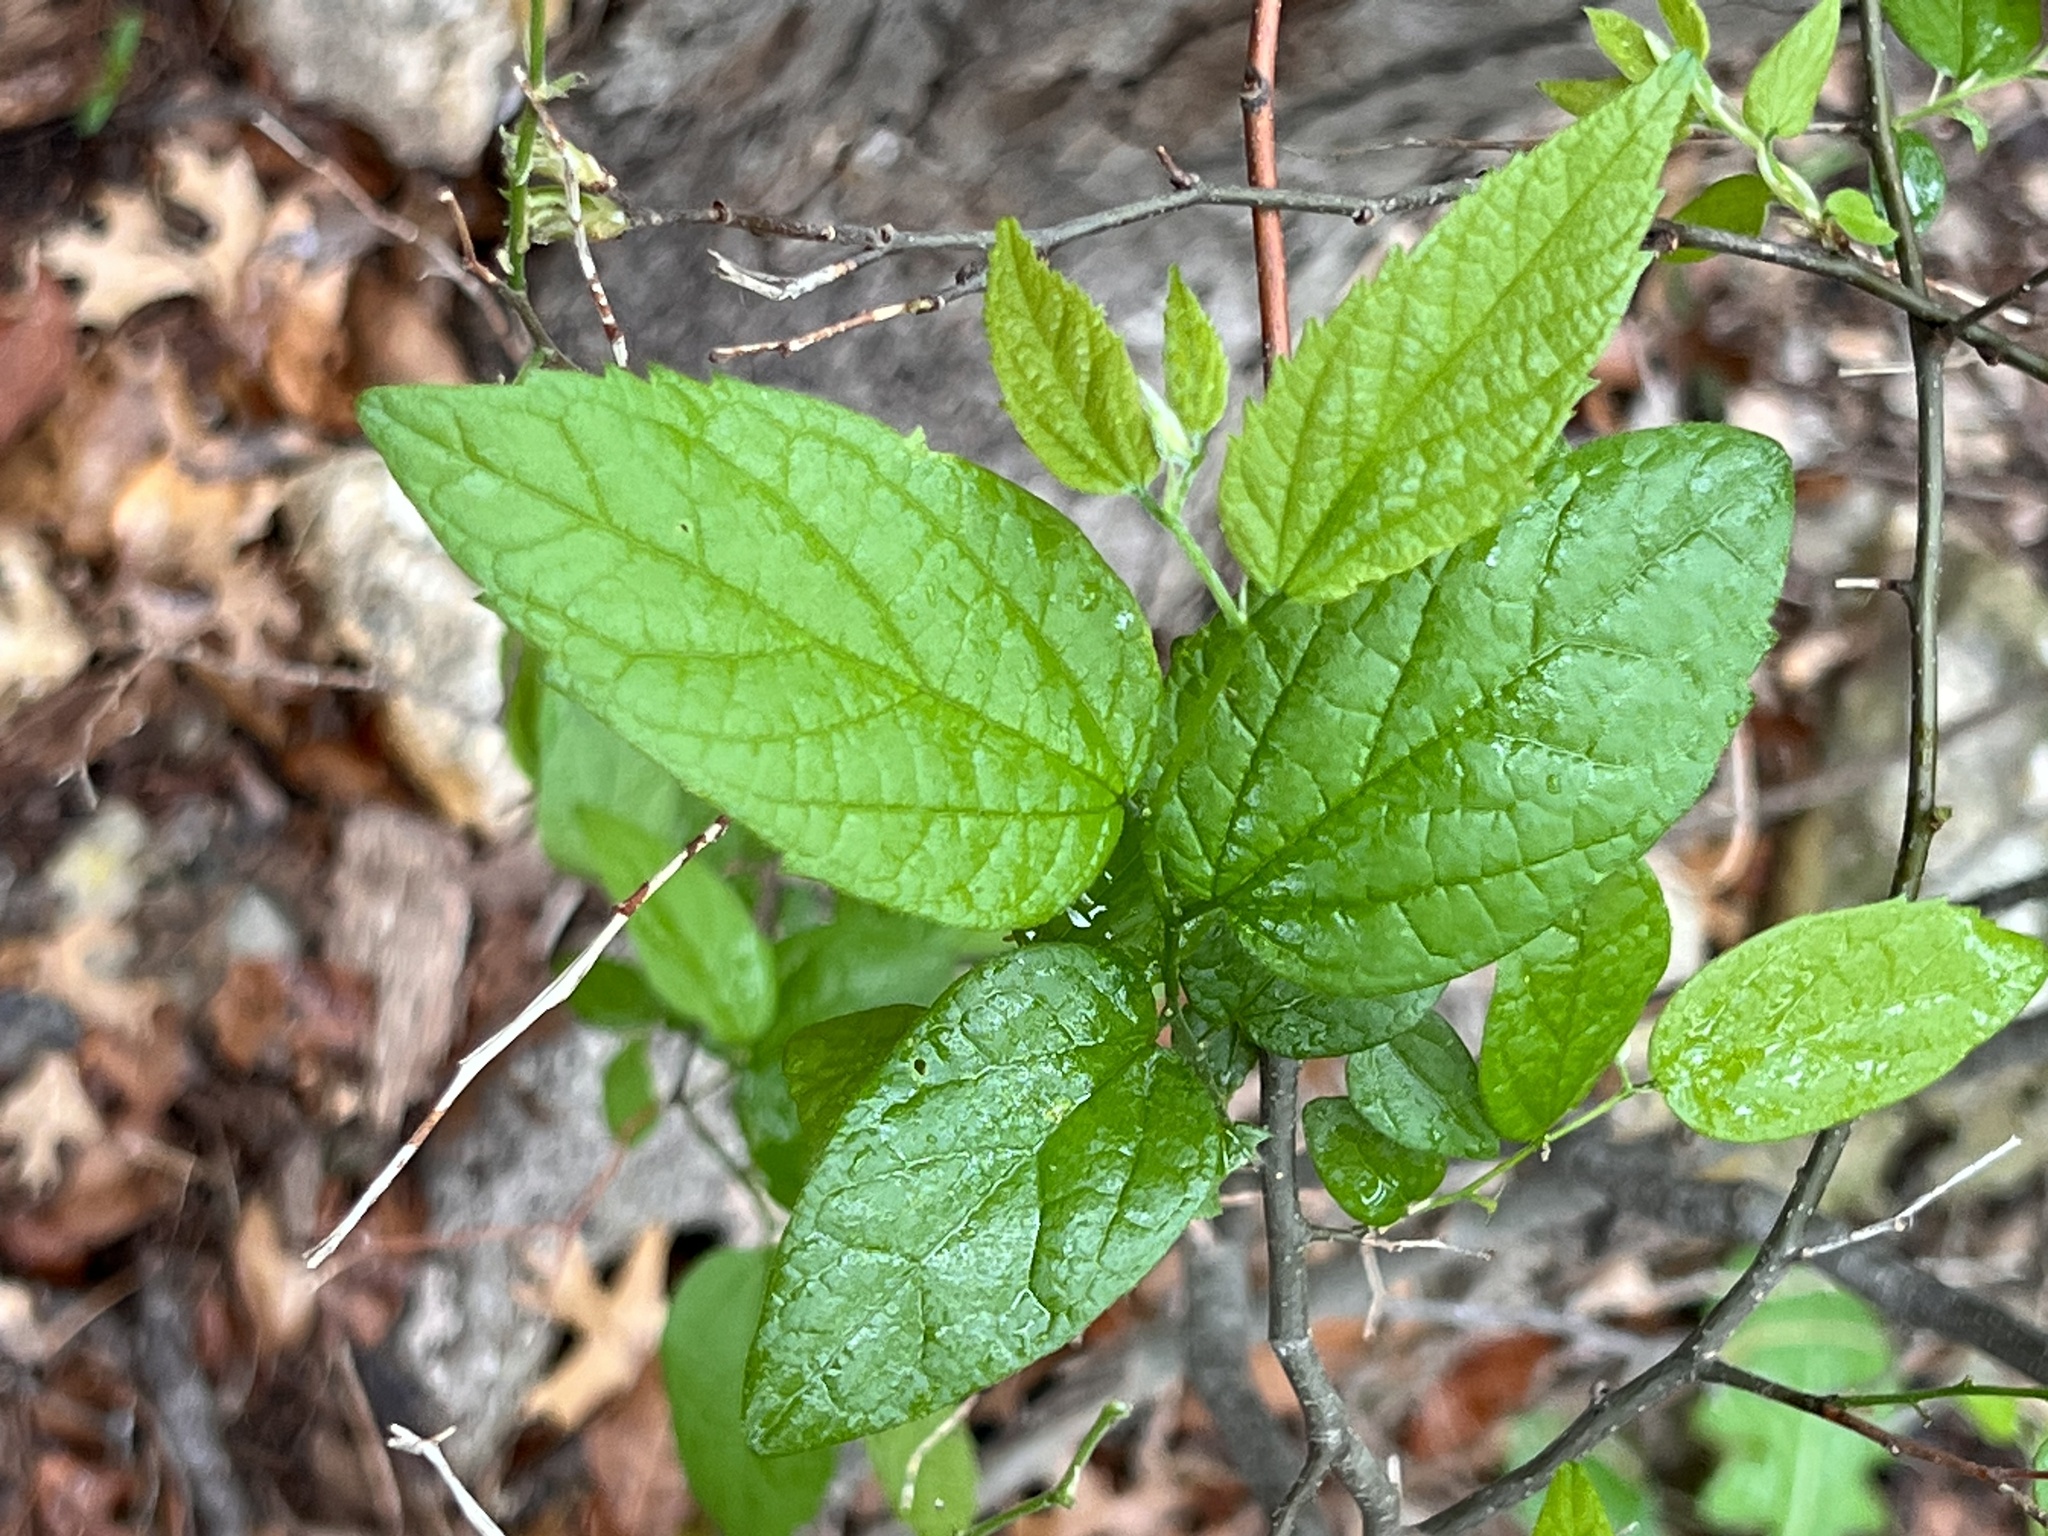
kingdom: Plantae
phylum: Tracheophyta
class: Magnoliopsida
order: Rosales
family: Cannabaceae
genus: Celtis
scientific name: Celtis laevigata
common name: Sugarberry
